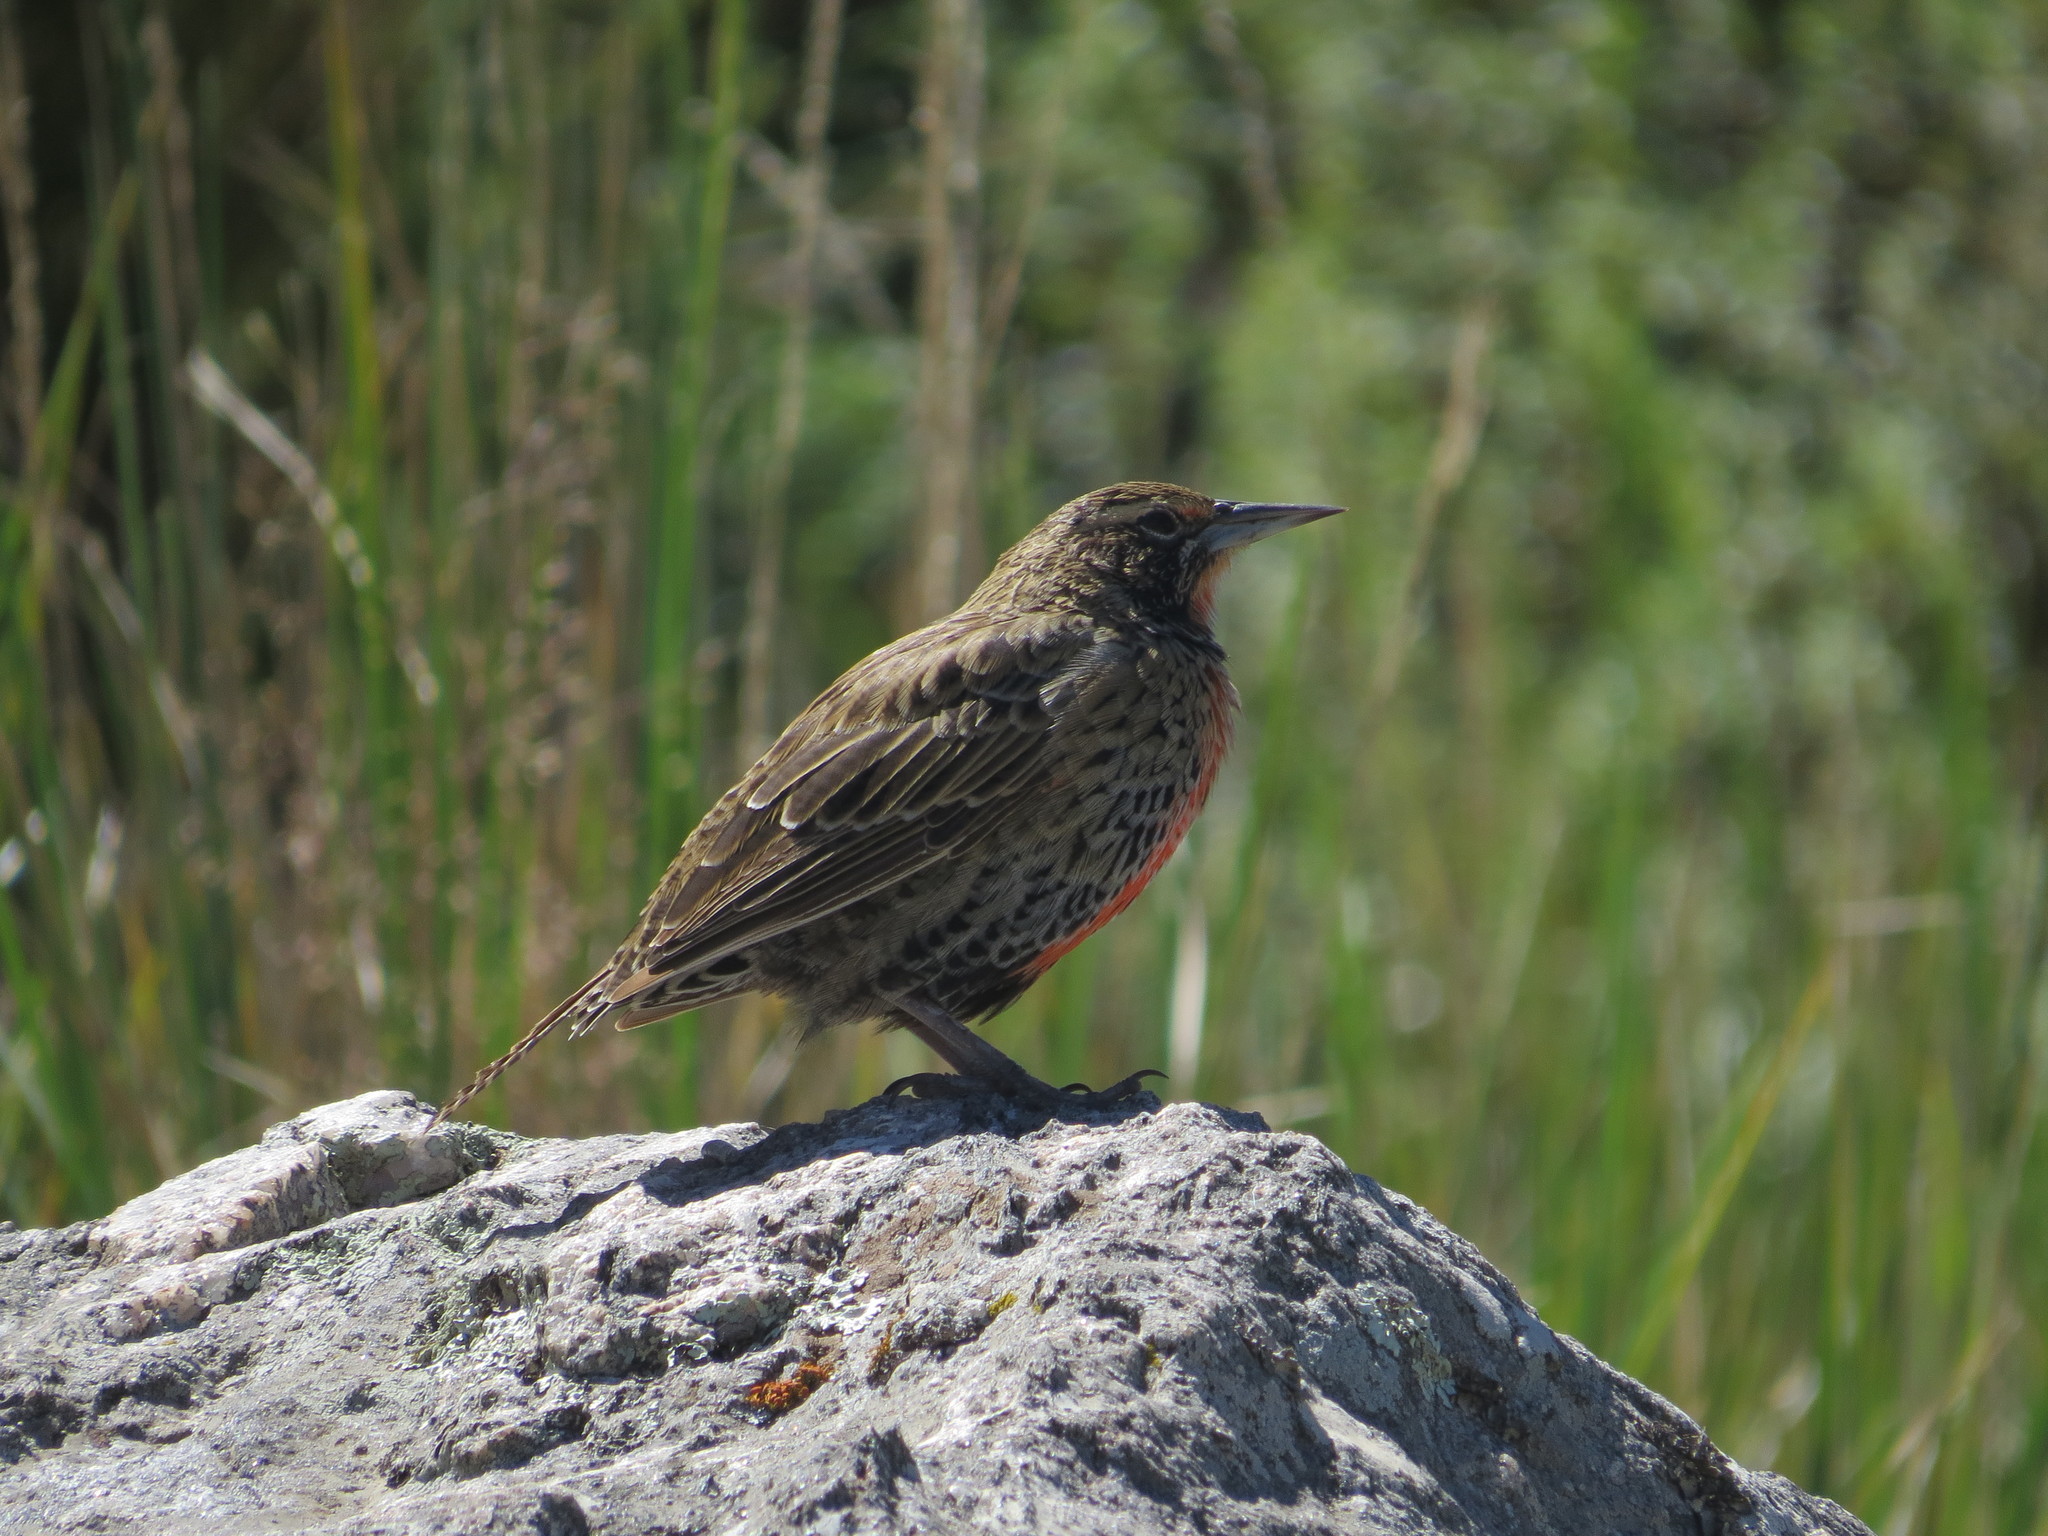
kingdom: Animalia
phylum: Chordata
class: Aves
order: Passeriformes
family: Icteridae
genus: Sturnella
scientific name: Sturnella loyca
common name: Long-tailed meadowlark
